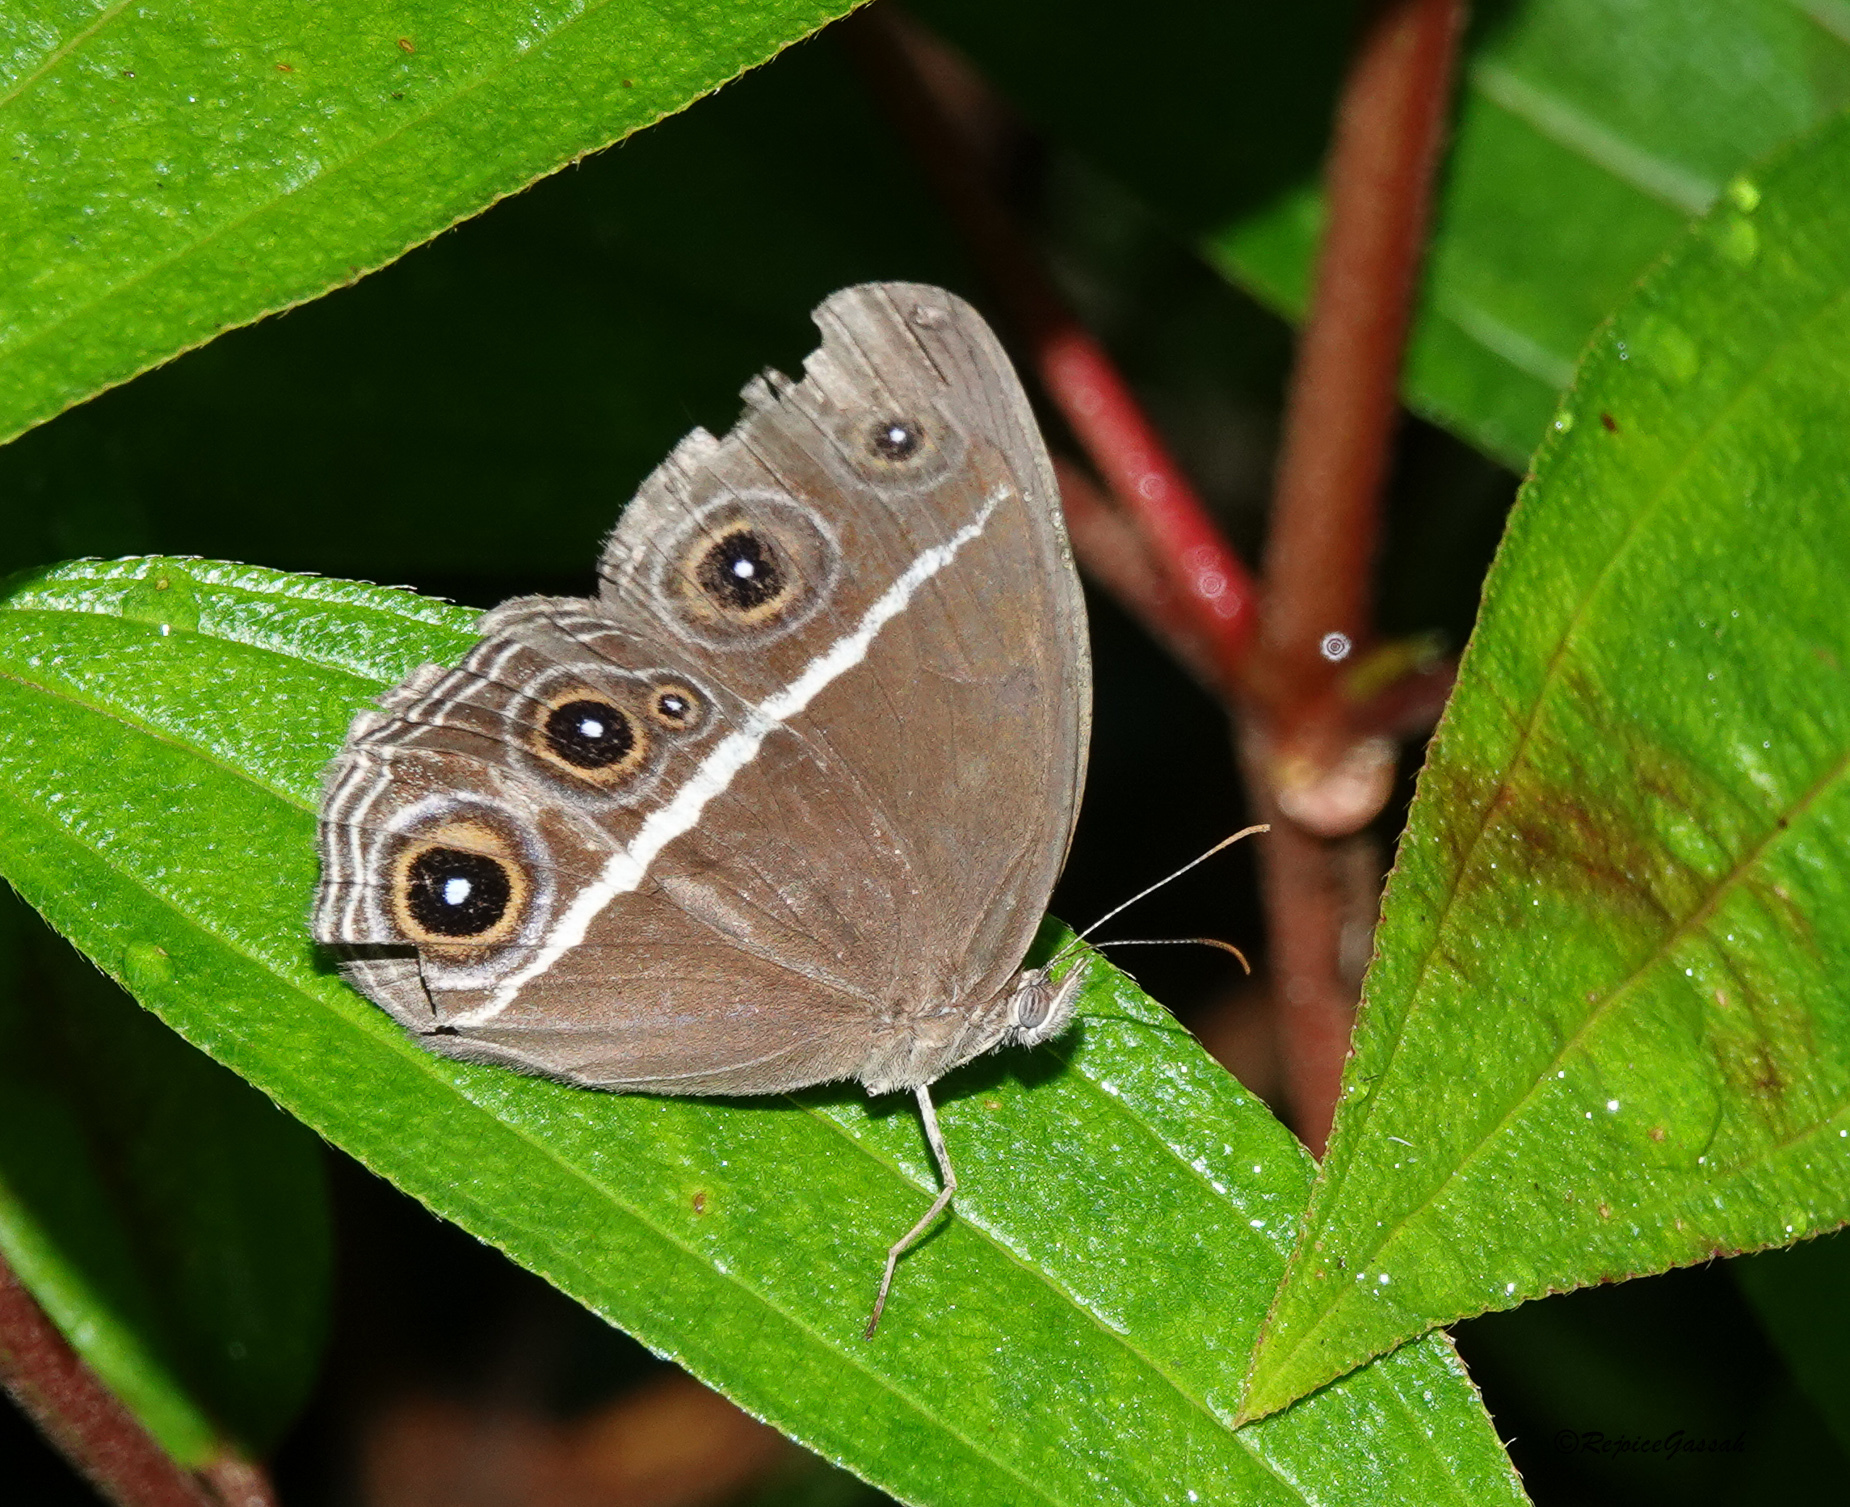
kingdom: Animalia
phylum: Arthropoda
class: Insecta
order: Lepidoptera
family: Nymphalidae
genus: Orsotriaena
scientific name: Orsotriaena medus
